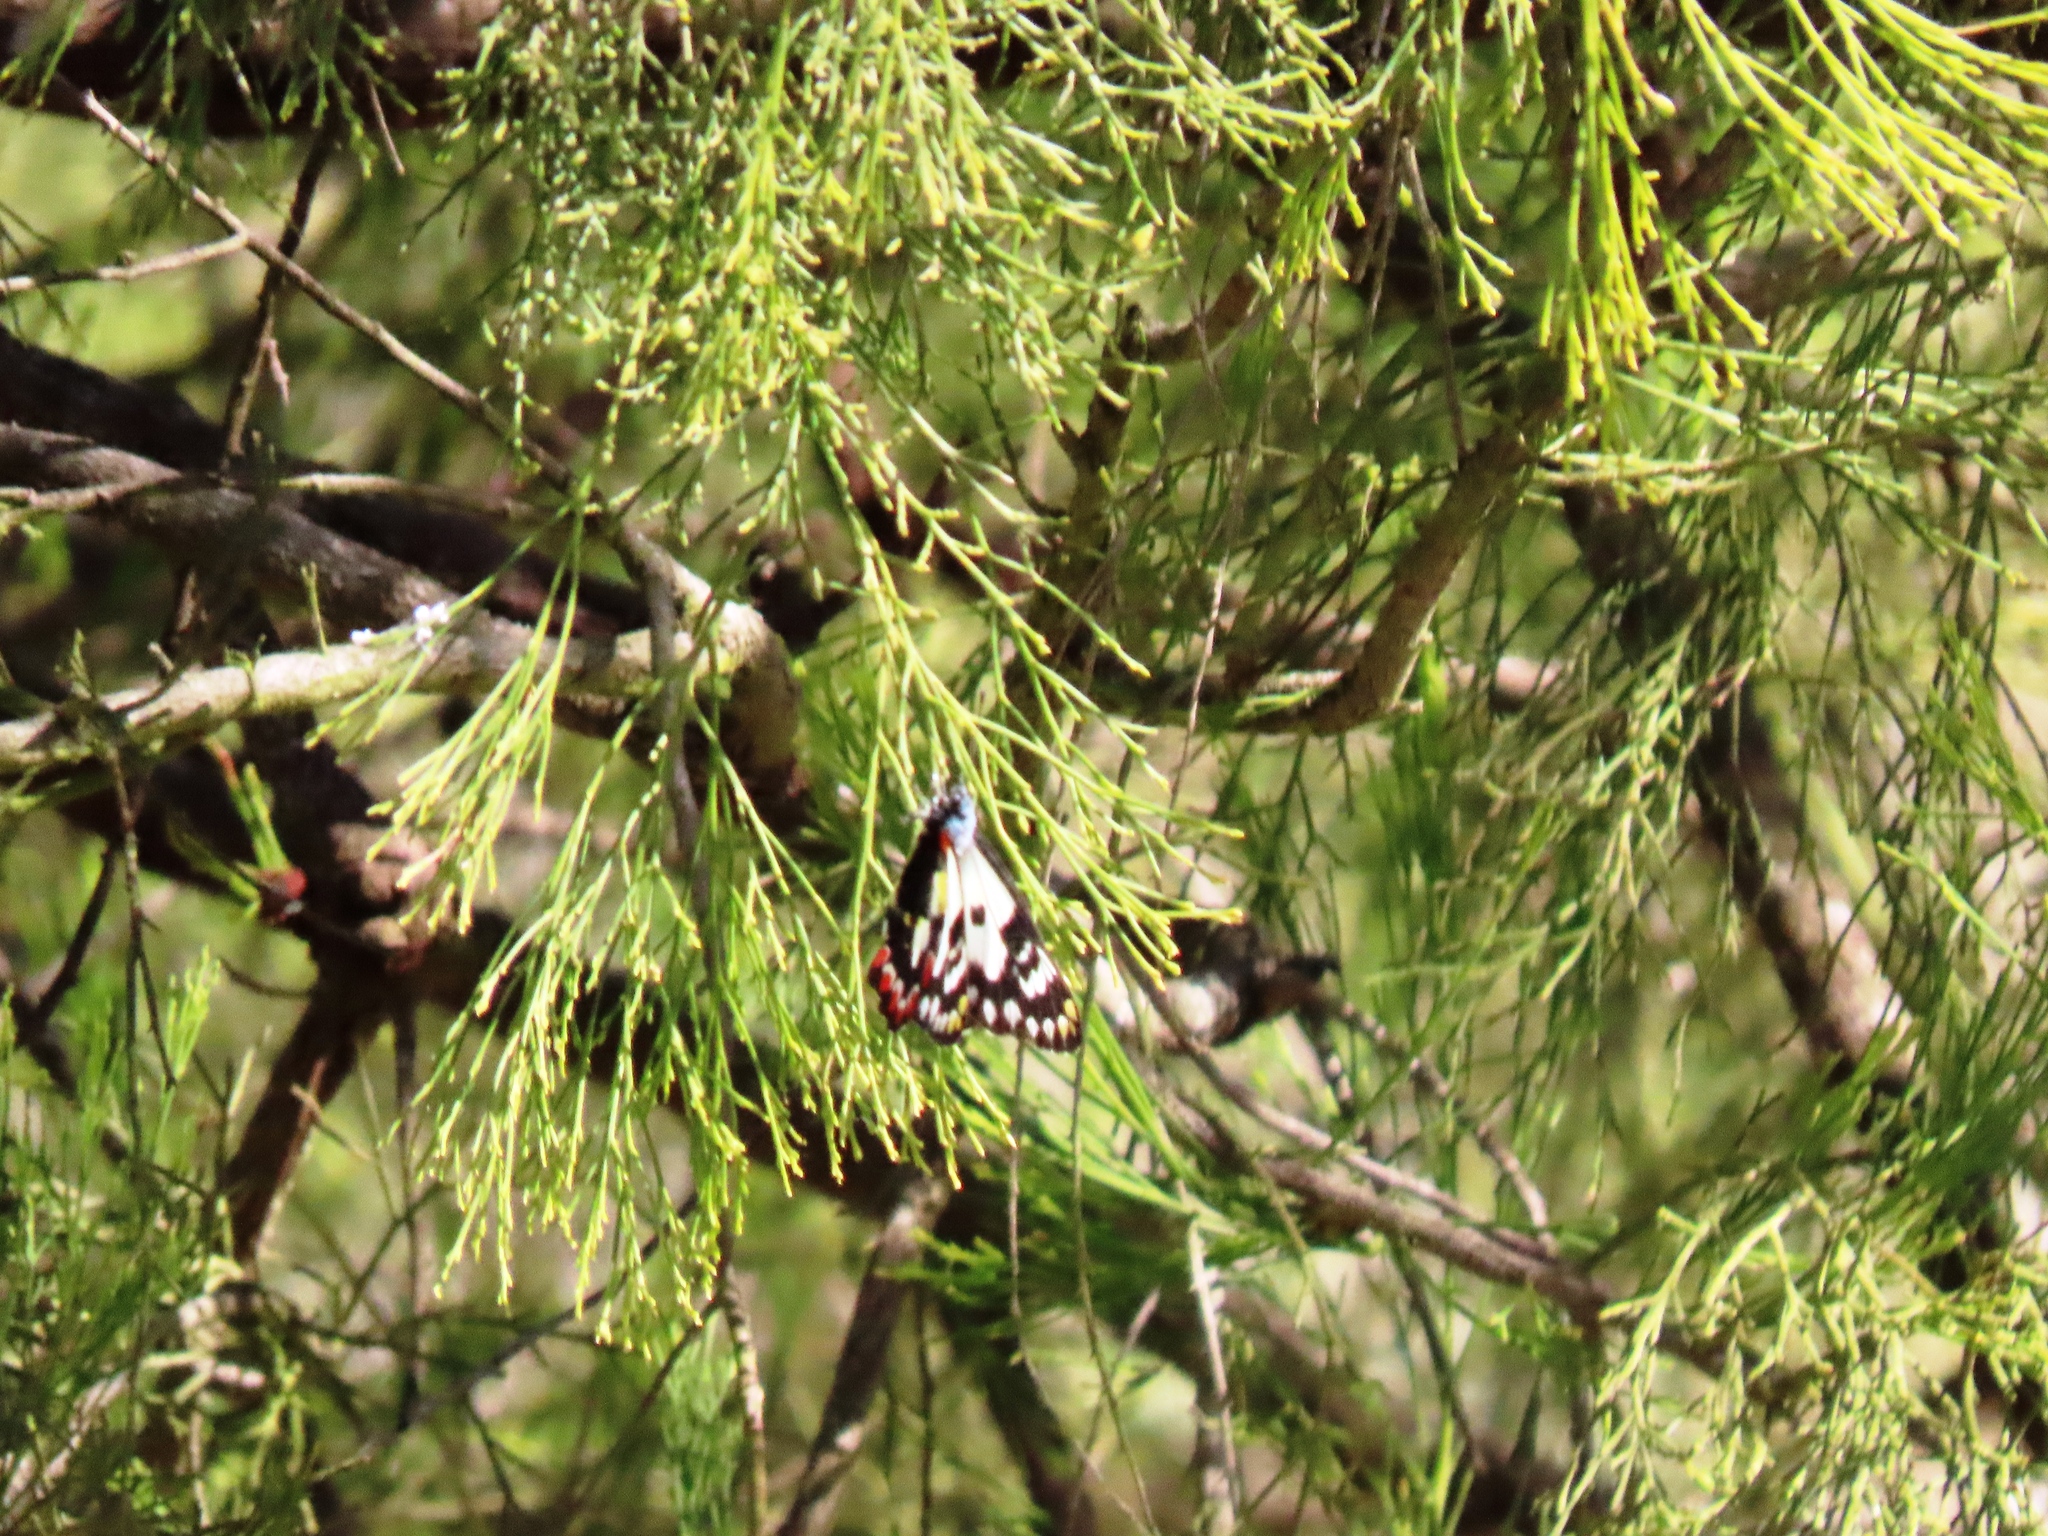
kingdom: Animalia
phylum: Arthropoda
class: Insecta
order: Lepidoptera
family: Pieridae
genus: Delias
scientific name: Delias aganippe
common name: Red-spotted jezebel
